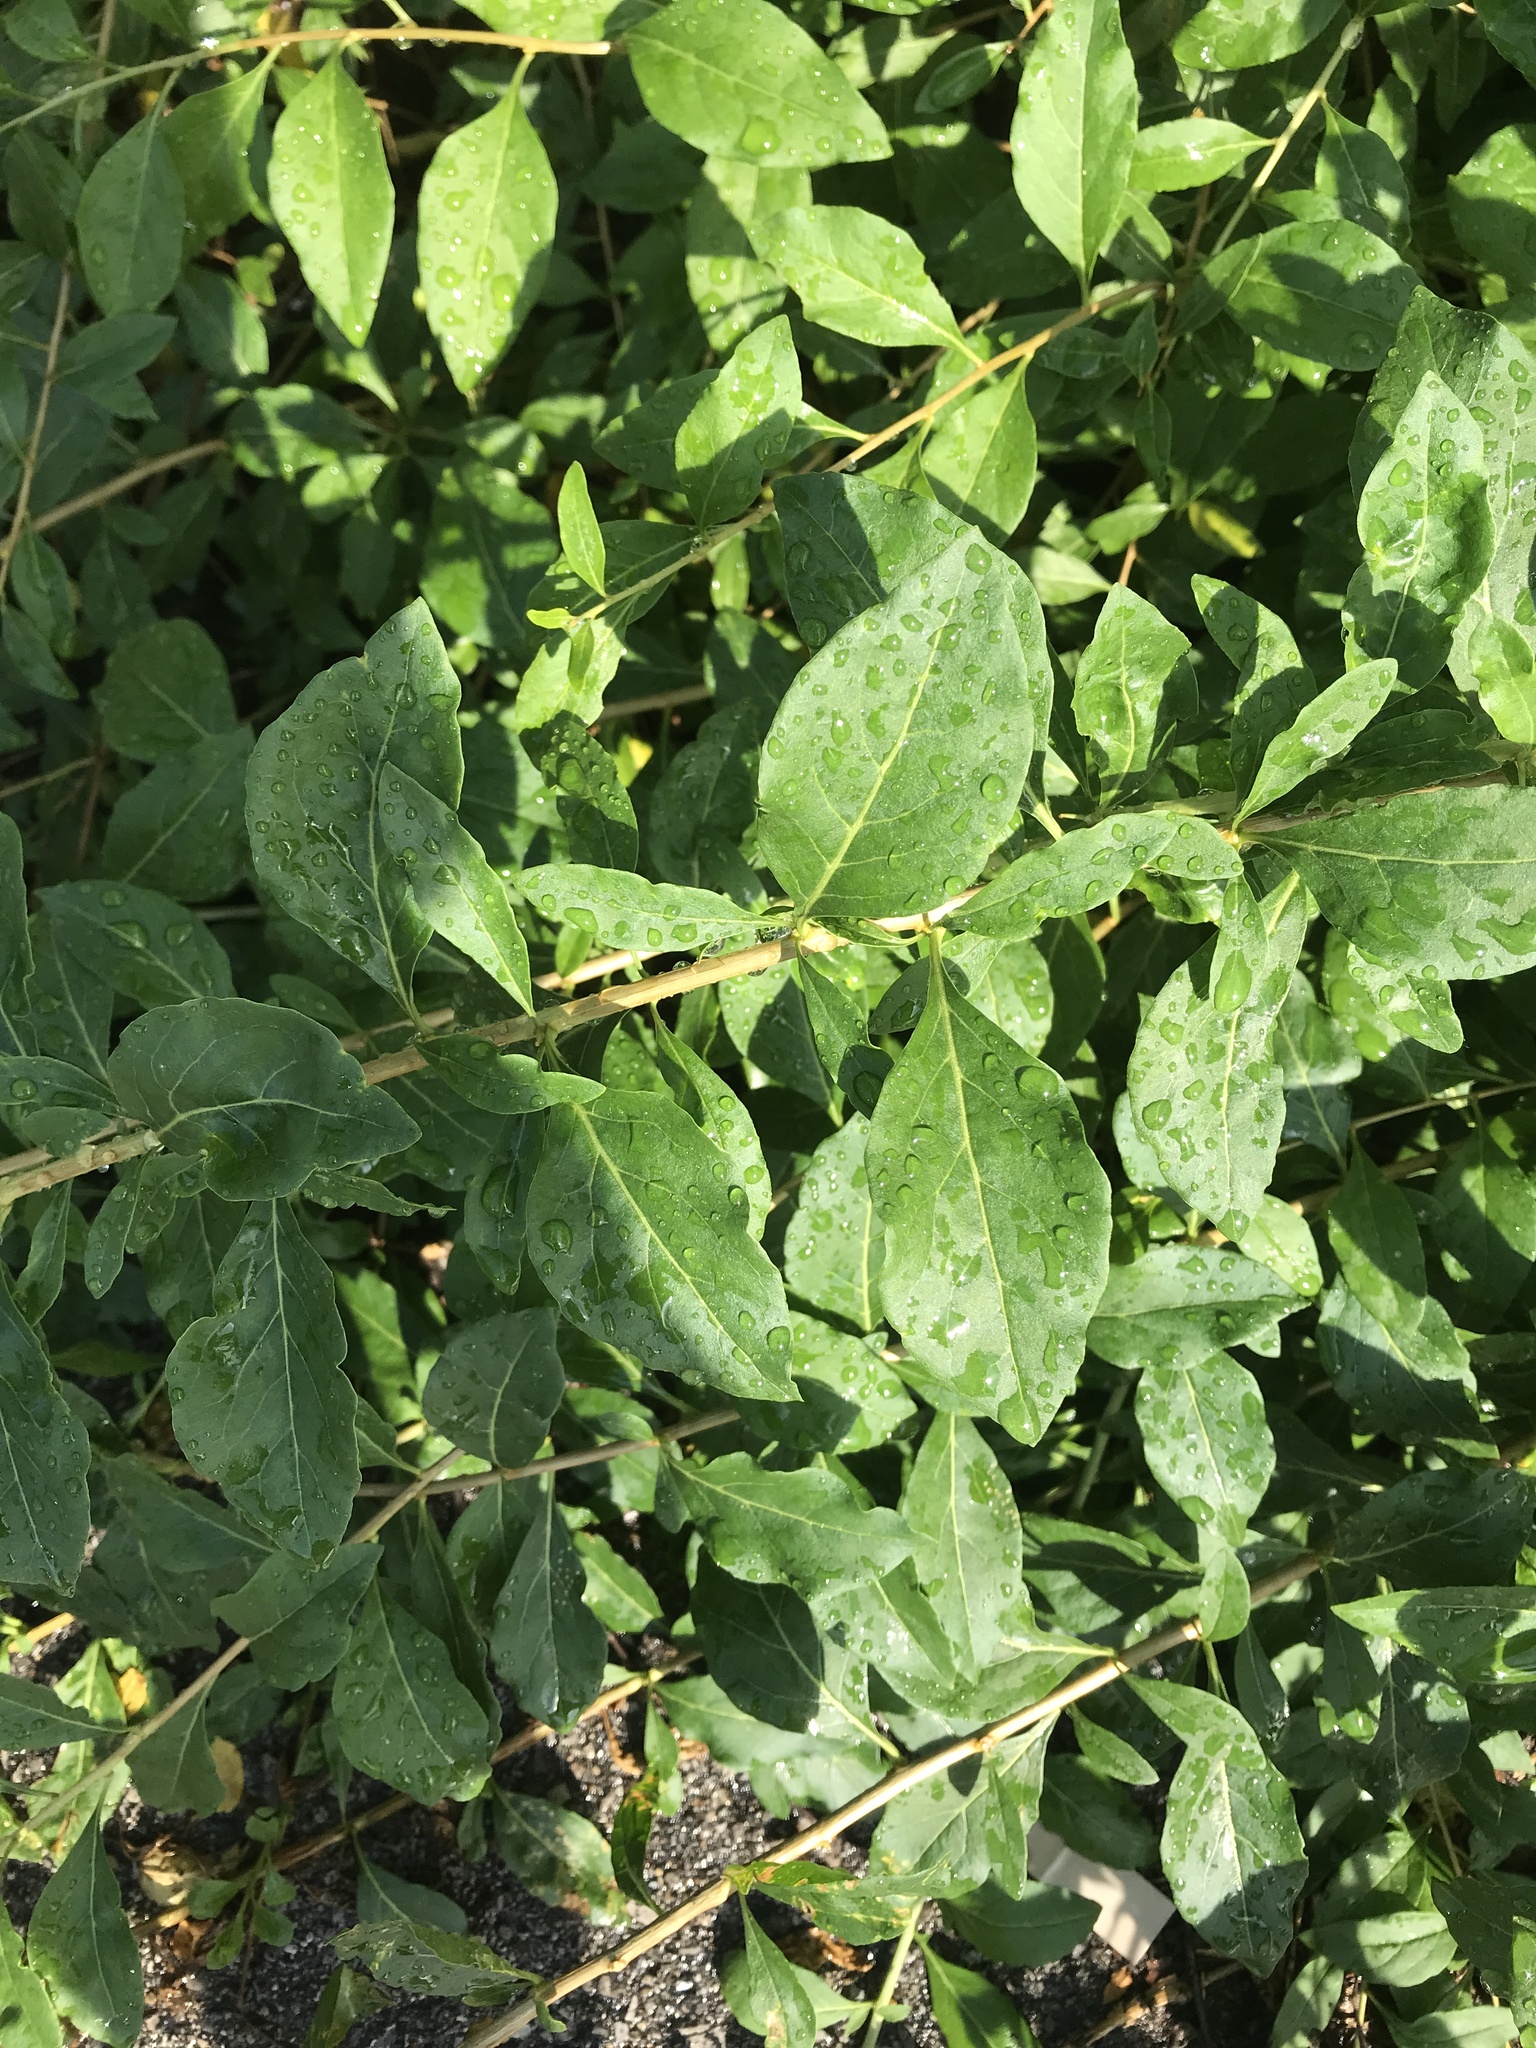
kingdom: Plantae
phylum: Tracheophyta
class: Magnoliopsida
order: Lamiales
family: Oleaceae
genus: Ligustrum
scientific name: Ligustrum ovalifolium
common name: California privet
